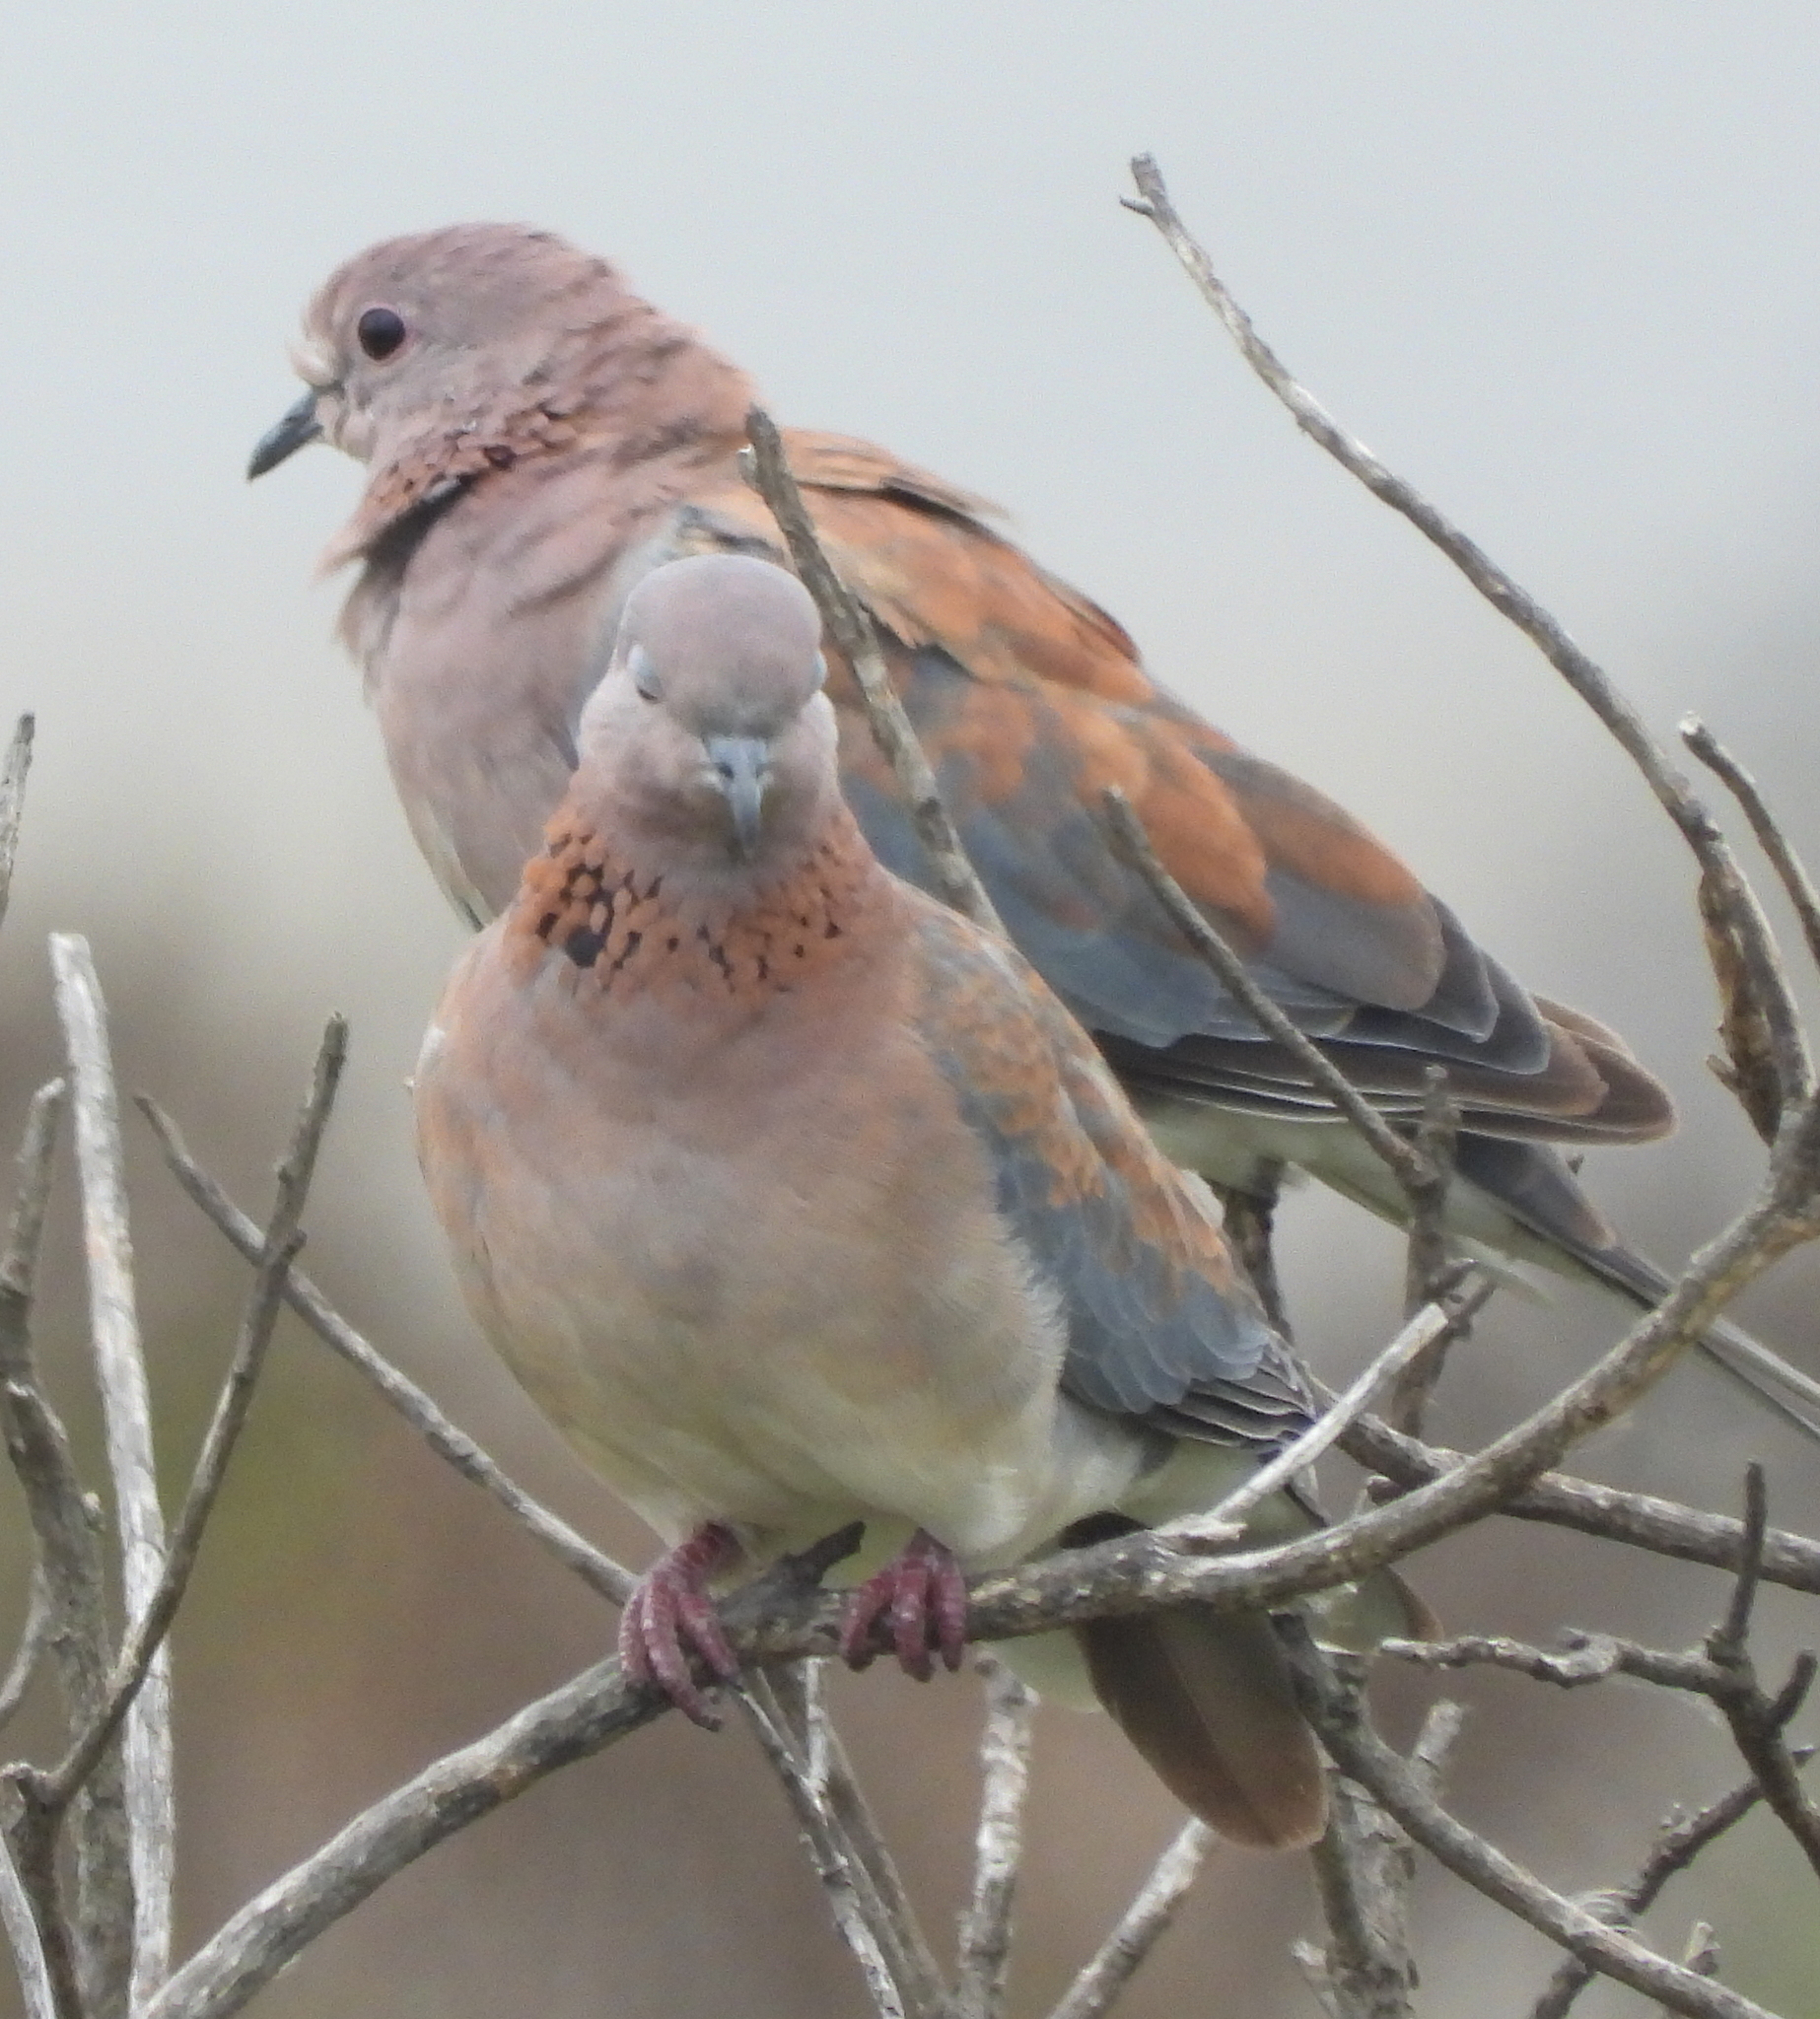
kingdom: Animalia
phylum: Chordata
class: Aves
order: Columbiformes
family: Columbidae
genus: Spilopelia
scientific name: Spilopelia senegalensis
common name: Laughing dove
